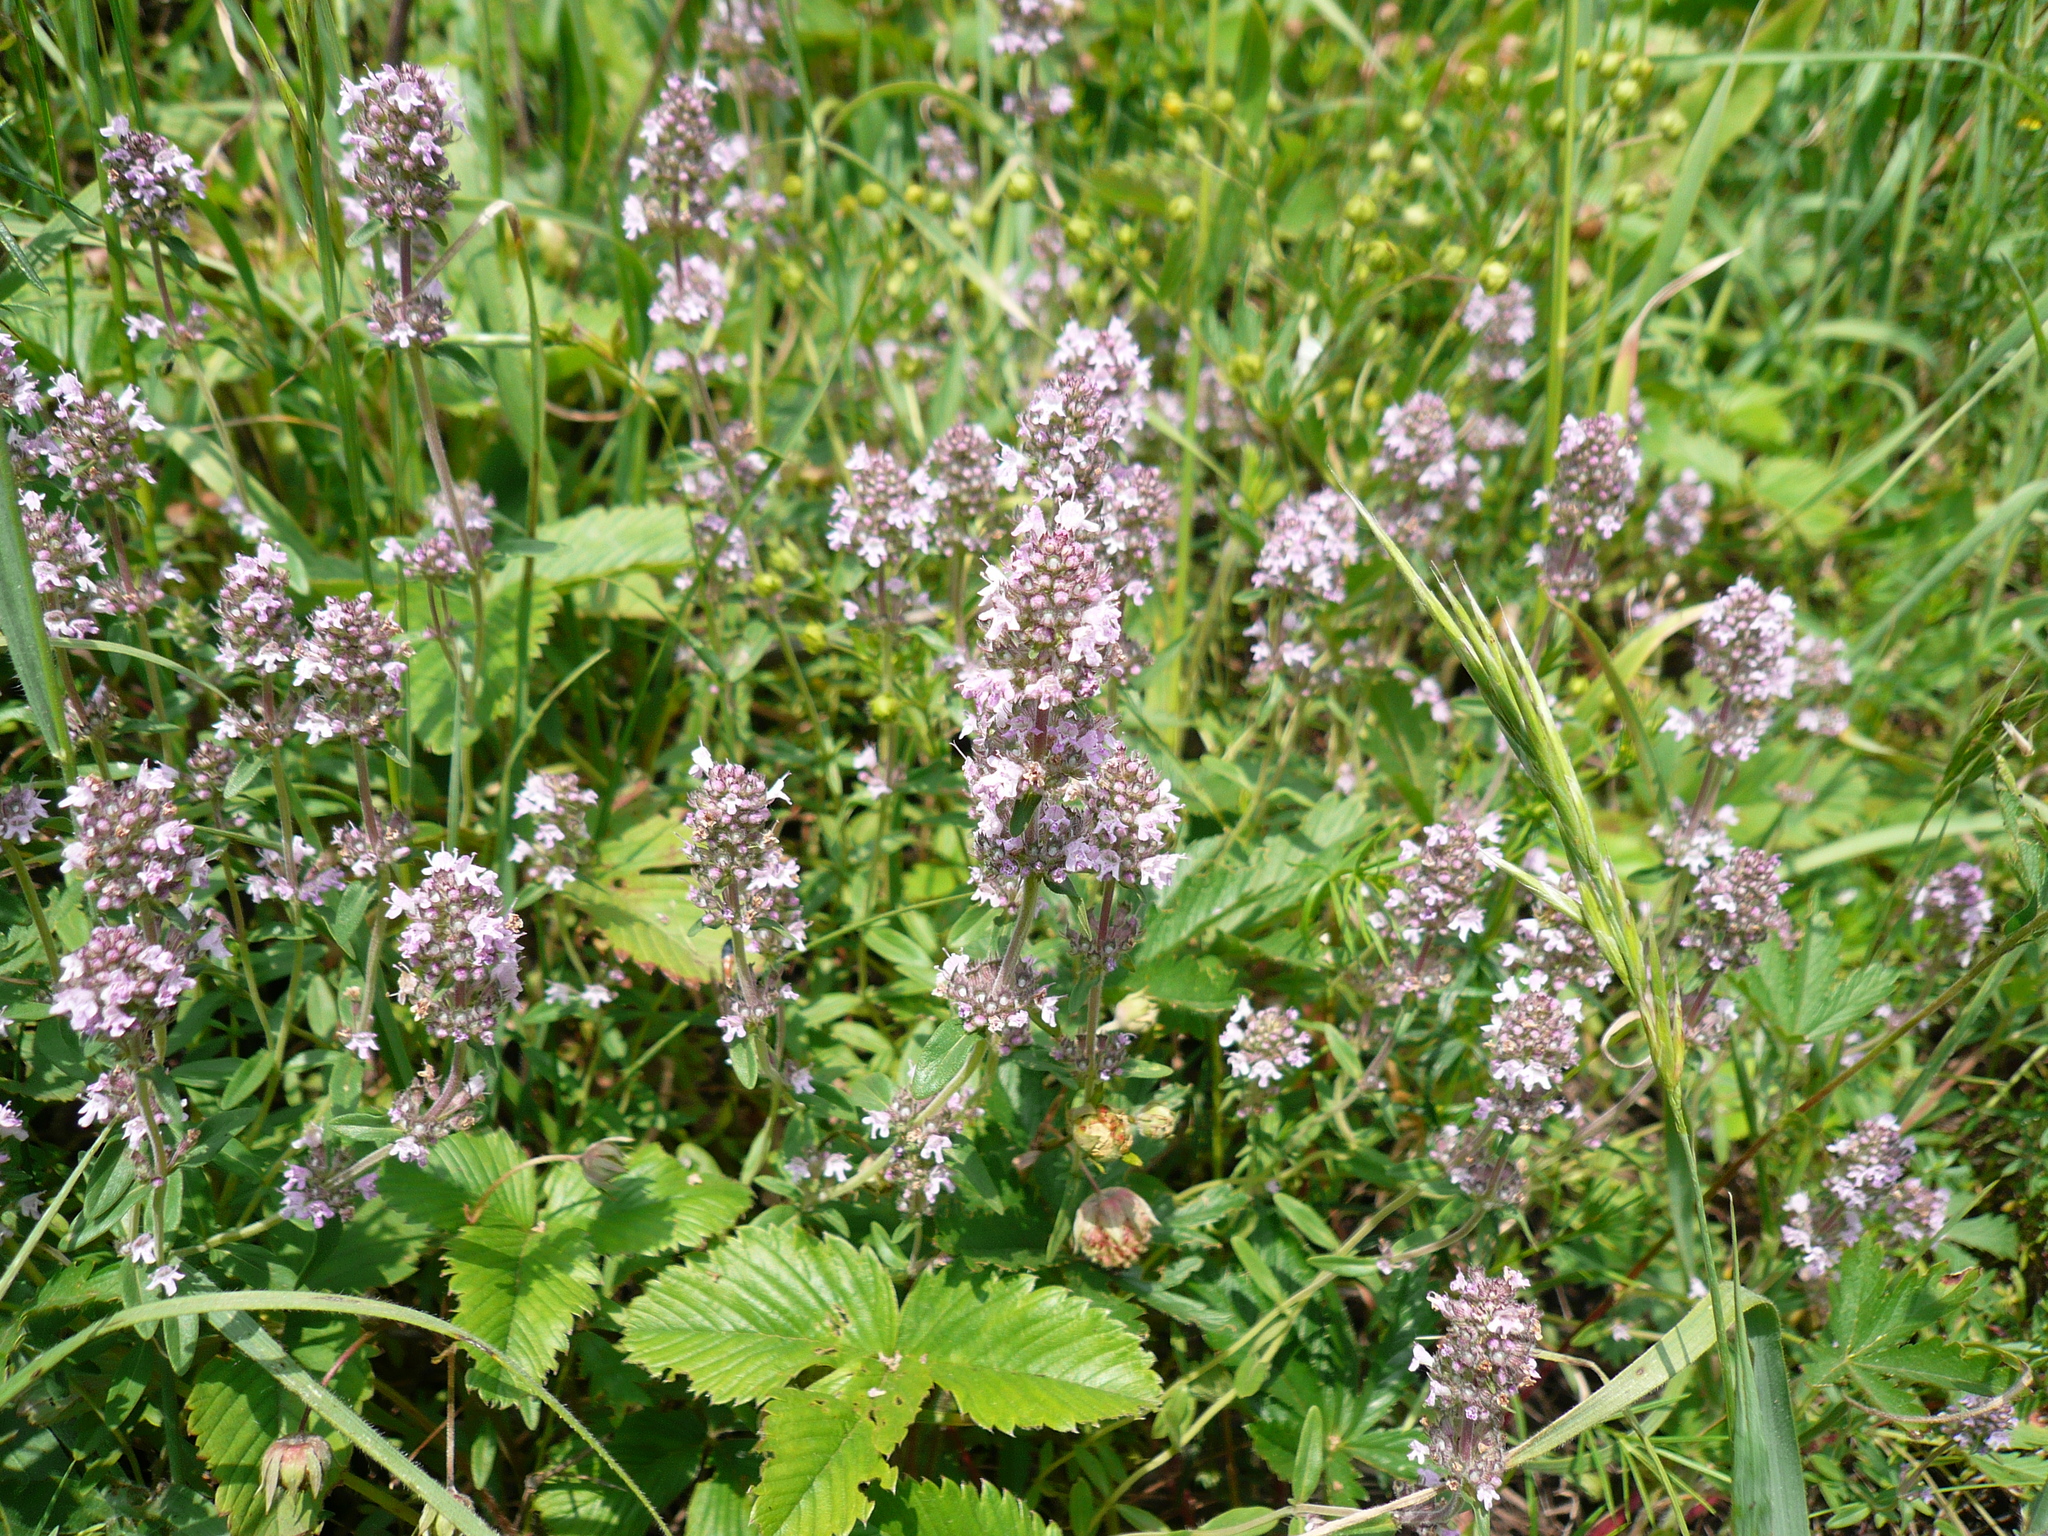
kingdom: Plantae
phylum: Tracheophyta
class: Magnoliopsida
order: Lamiales
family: Lamiaceae
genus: Thymus
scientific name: Thymus pannonicus
